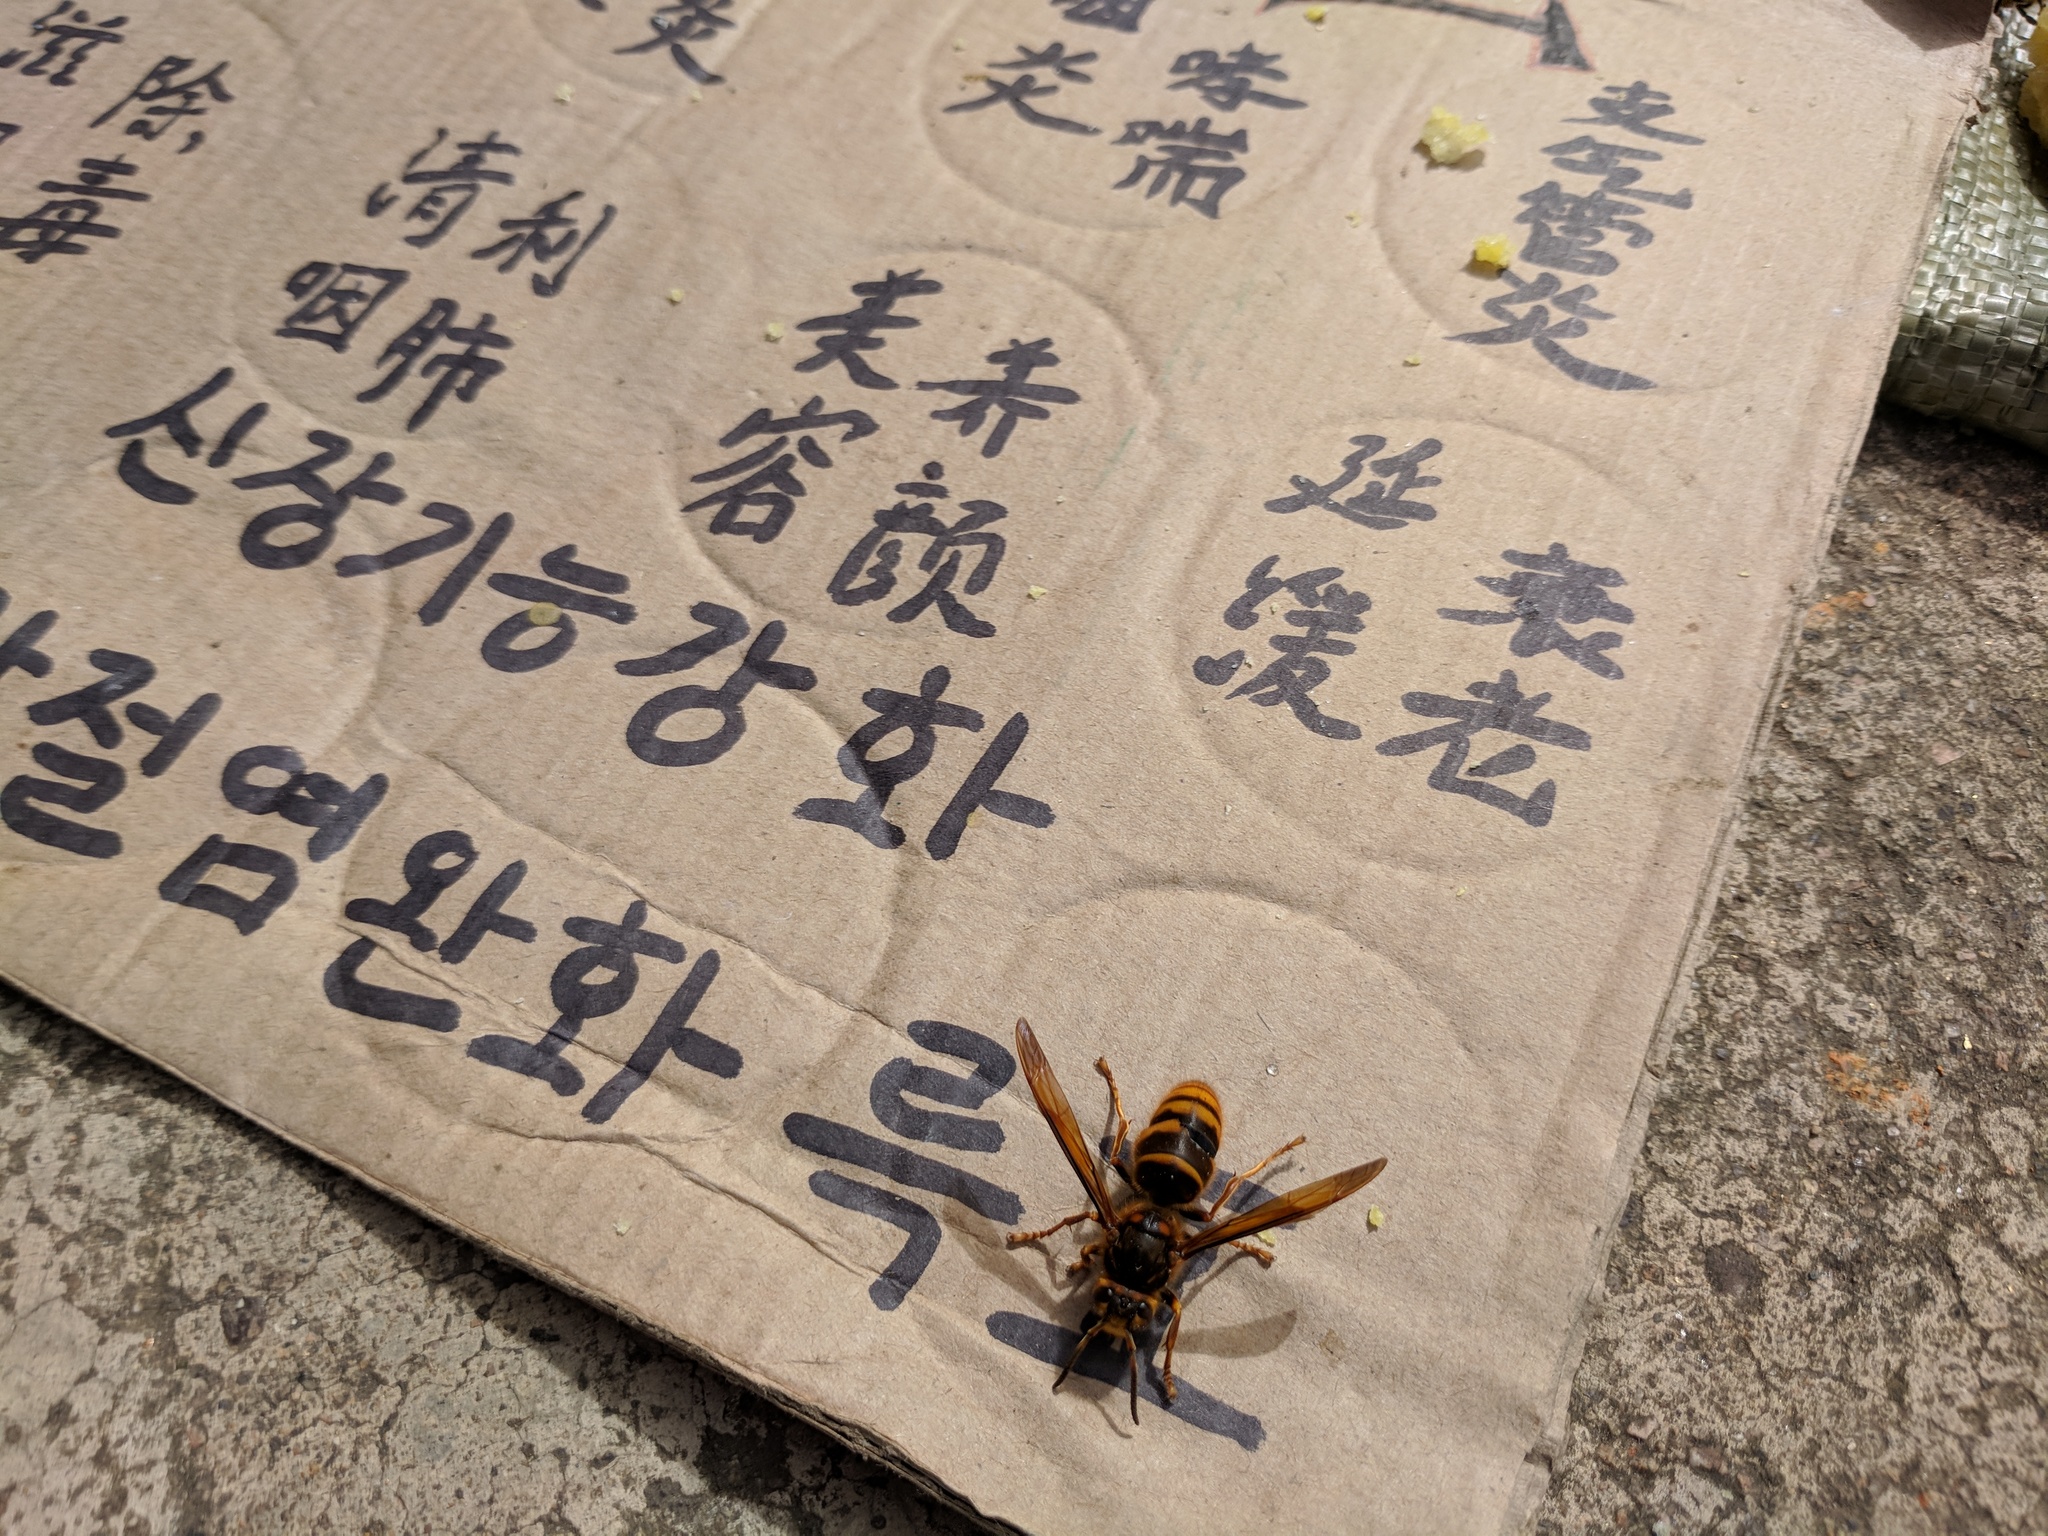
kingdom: Animalia
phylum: Arthropoda
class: Insecta
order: Hymenoptera
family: Vespidae
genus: Vespa
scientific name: Vespa simillima
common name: Vespid wasp
